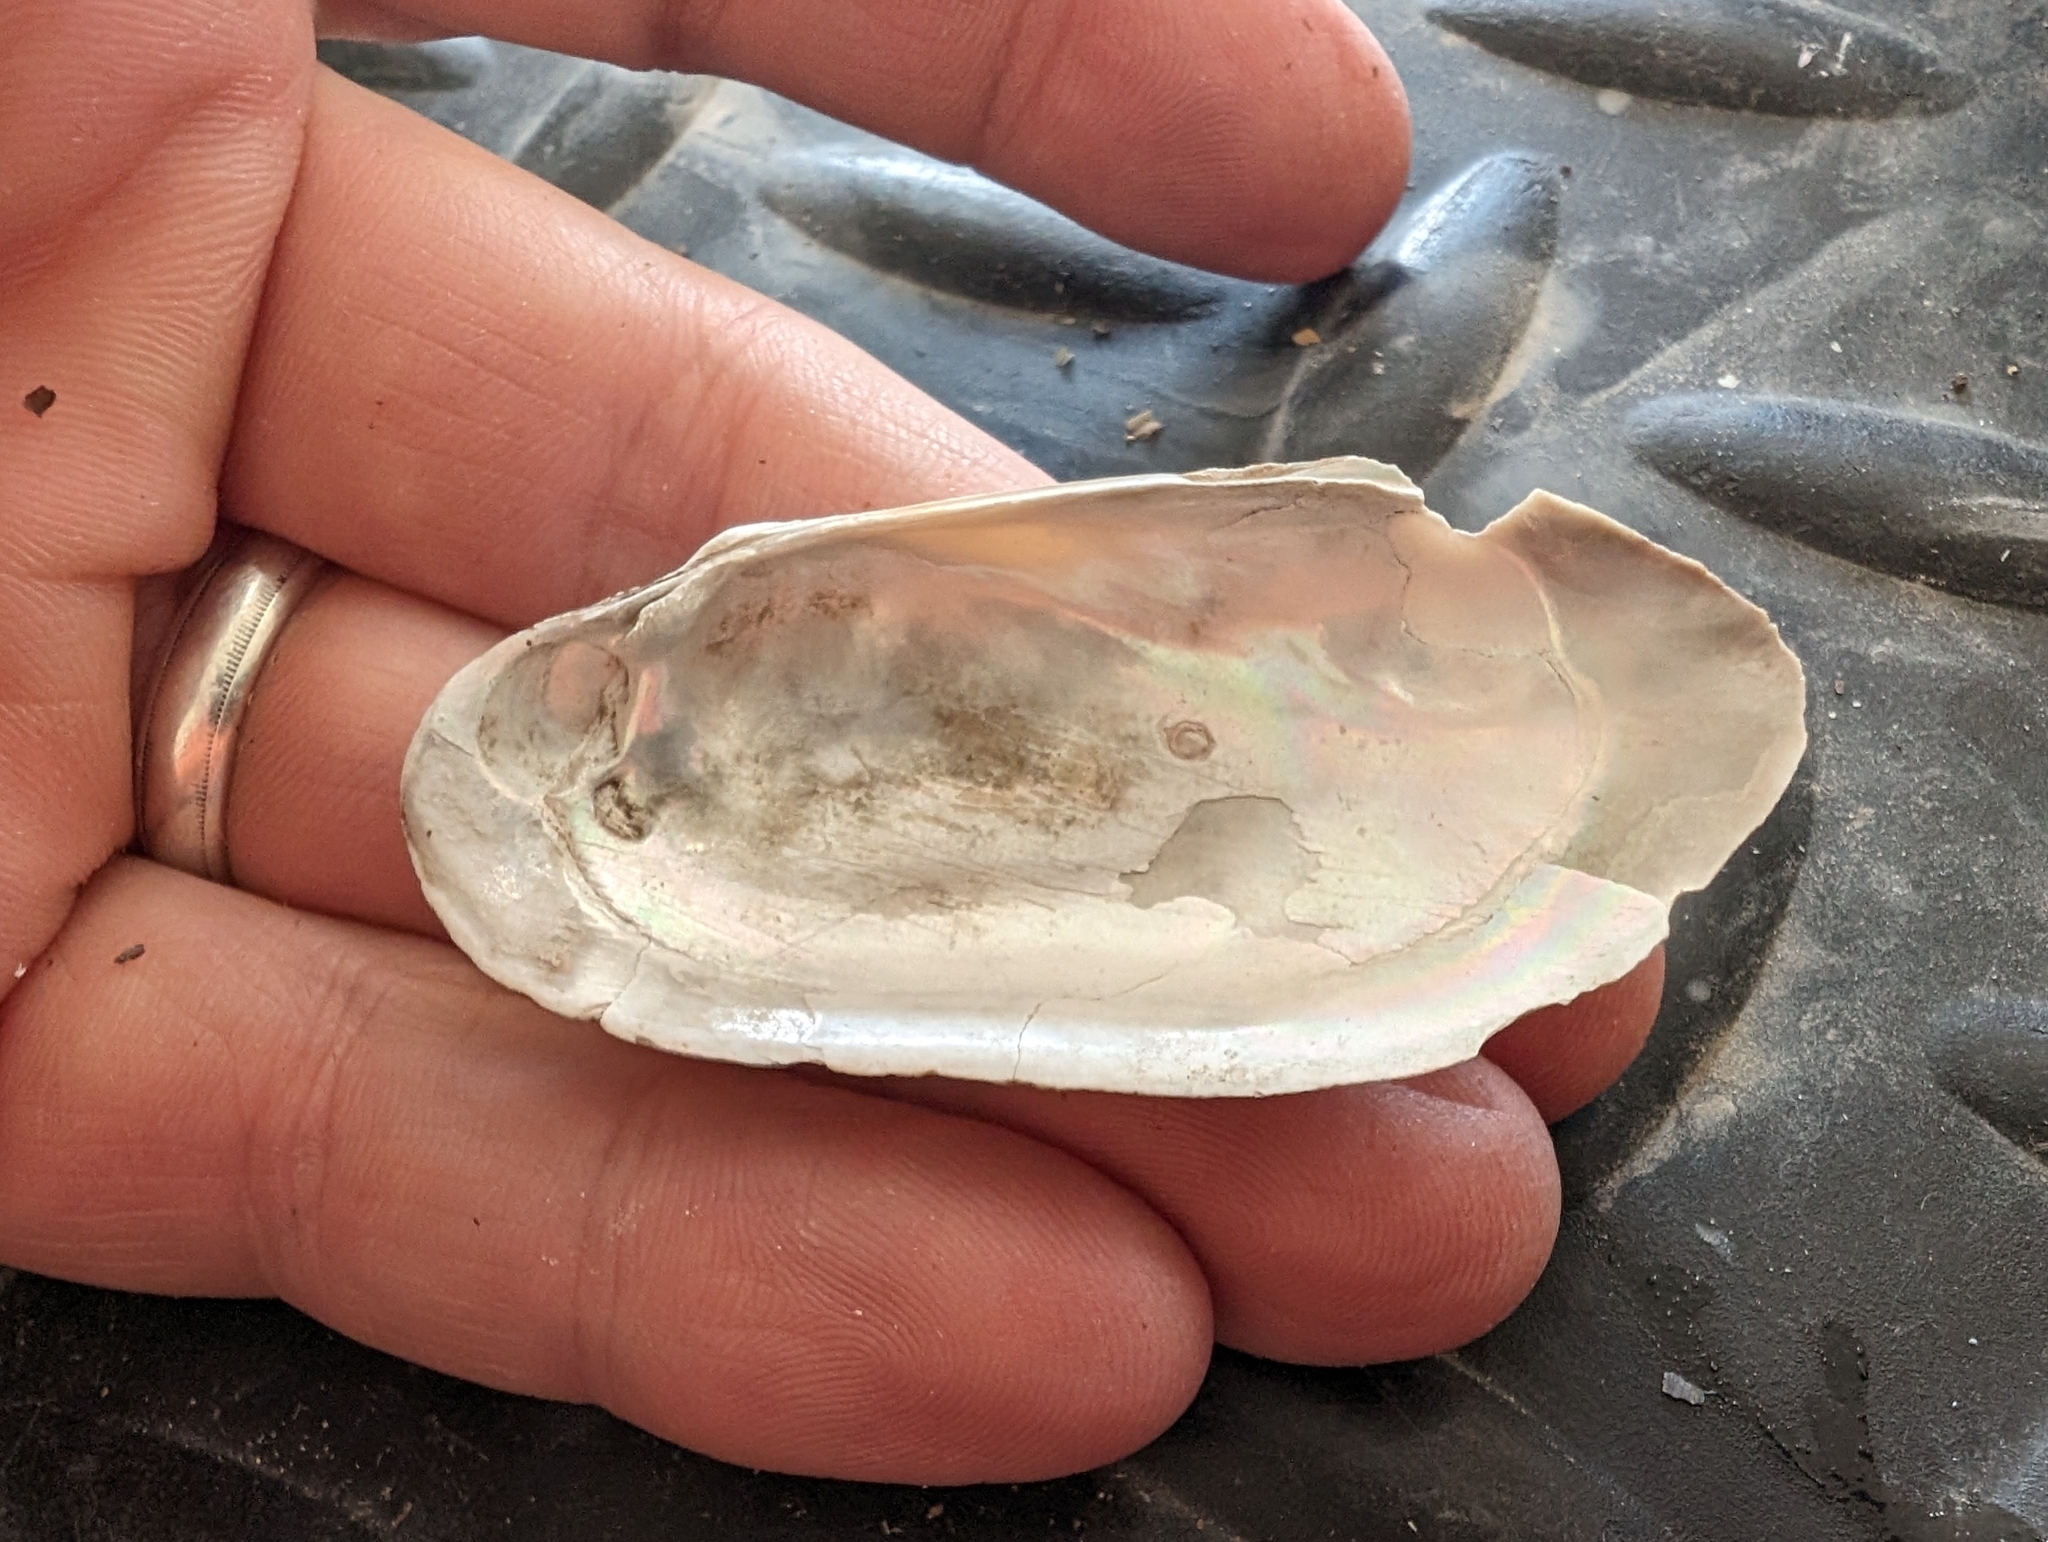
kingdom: Animalia
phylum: Mollusca
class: Bivalvia
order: Unionida
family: Unionidae
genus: Lampsilis
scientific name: Lampsilis teres
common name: Yellow sandshell
